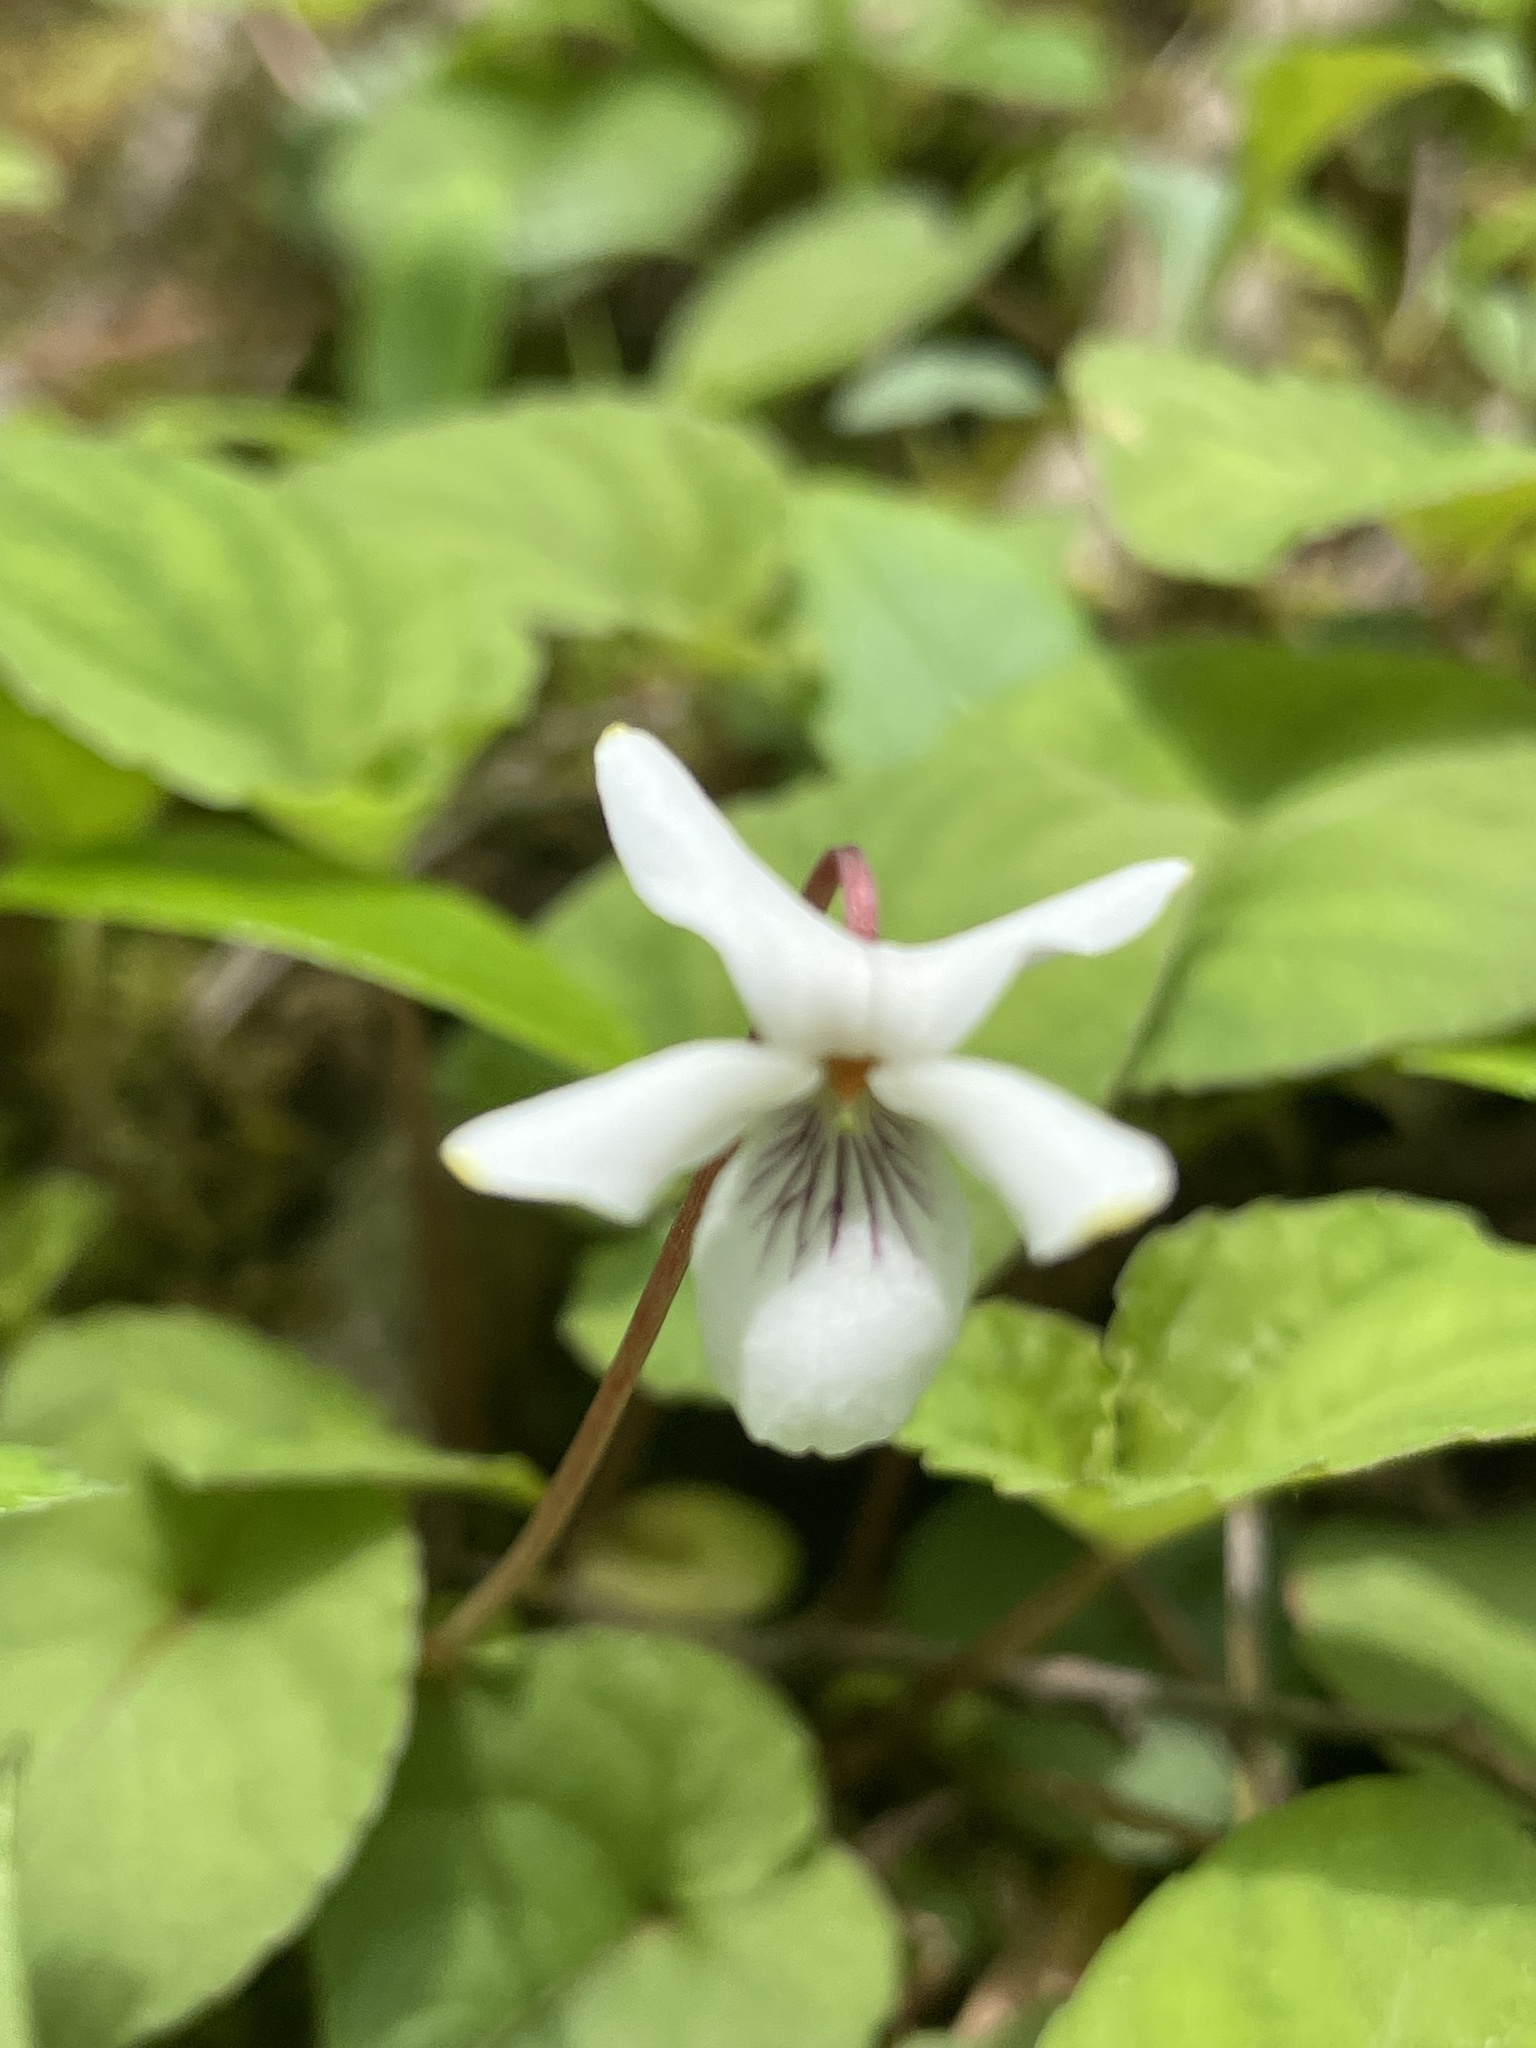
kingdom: Plantae
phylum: Tracheophyta
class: Magnoliopsida
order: Malpighiales
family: Violaceae
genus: Viola
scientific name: Viola blanda
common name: Sweet white violet
